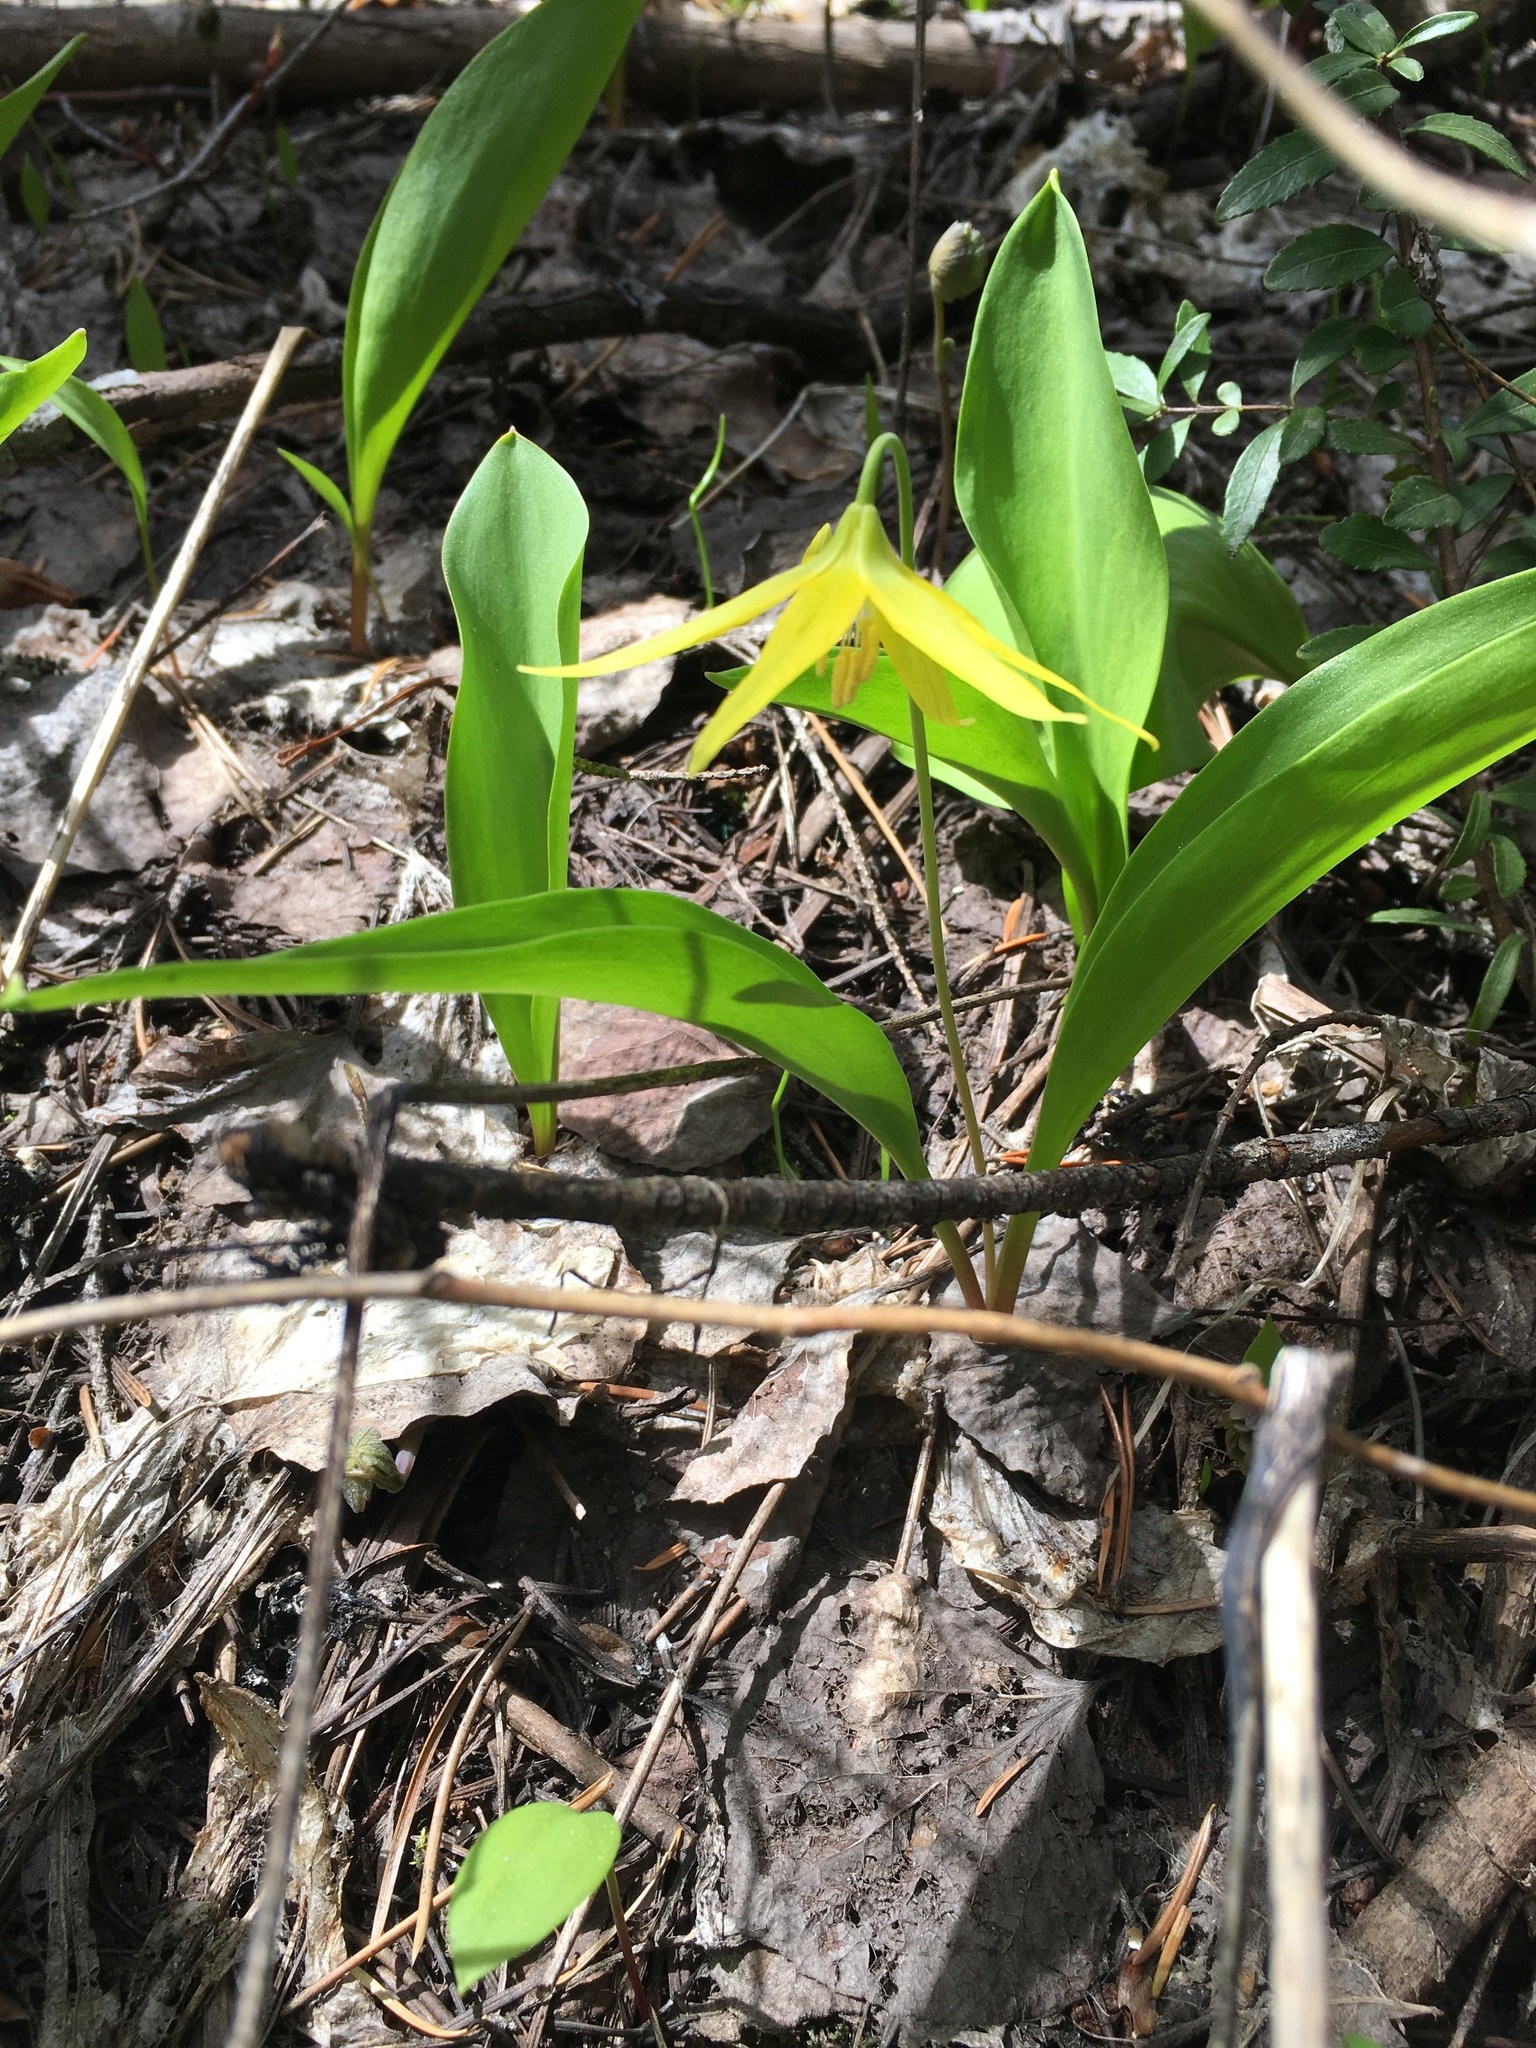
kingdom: Plantae
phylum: Tracheophyta
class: Liliopsida
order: Liliales
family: Liliaceae
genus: Erythronium
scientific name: Erythronium grandiflorum
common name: Avalanche-lily
